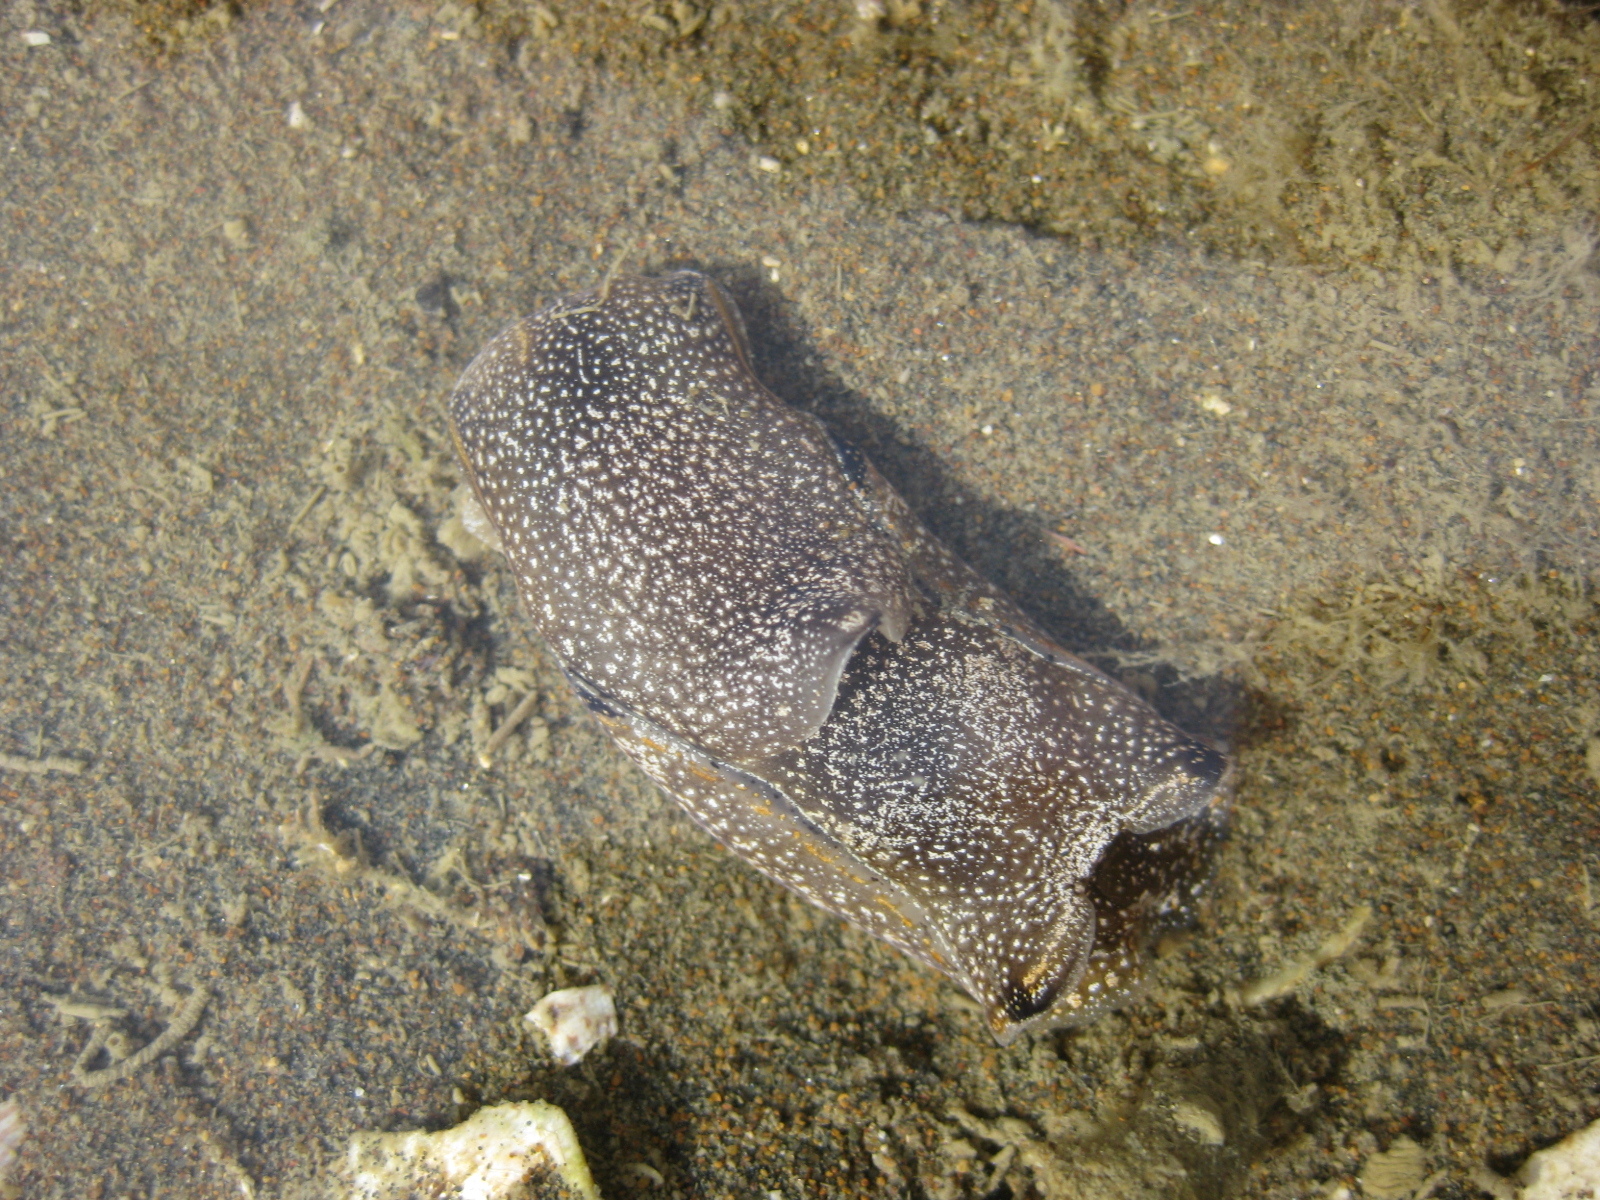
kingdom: Animalia
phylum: Mollusca
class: Gastropoda
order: Cephalaspidea
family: Aglajidae
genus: Philinopsis
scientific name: Philinopsis taronga
